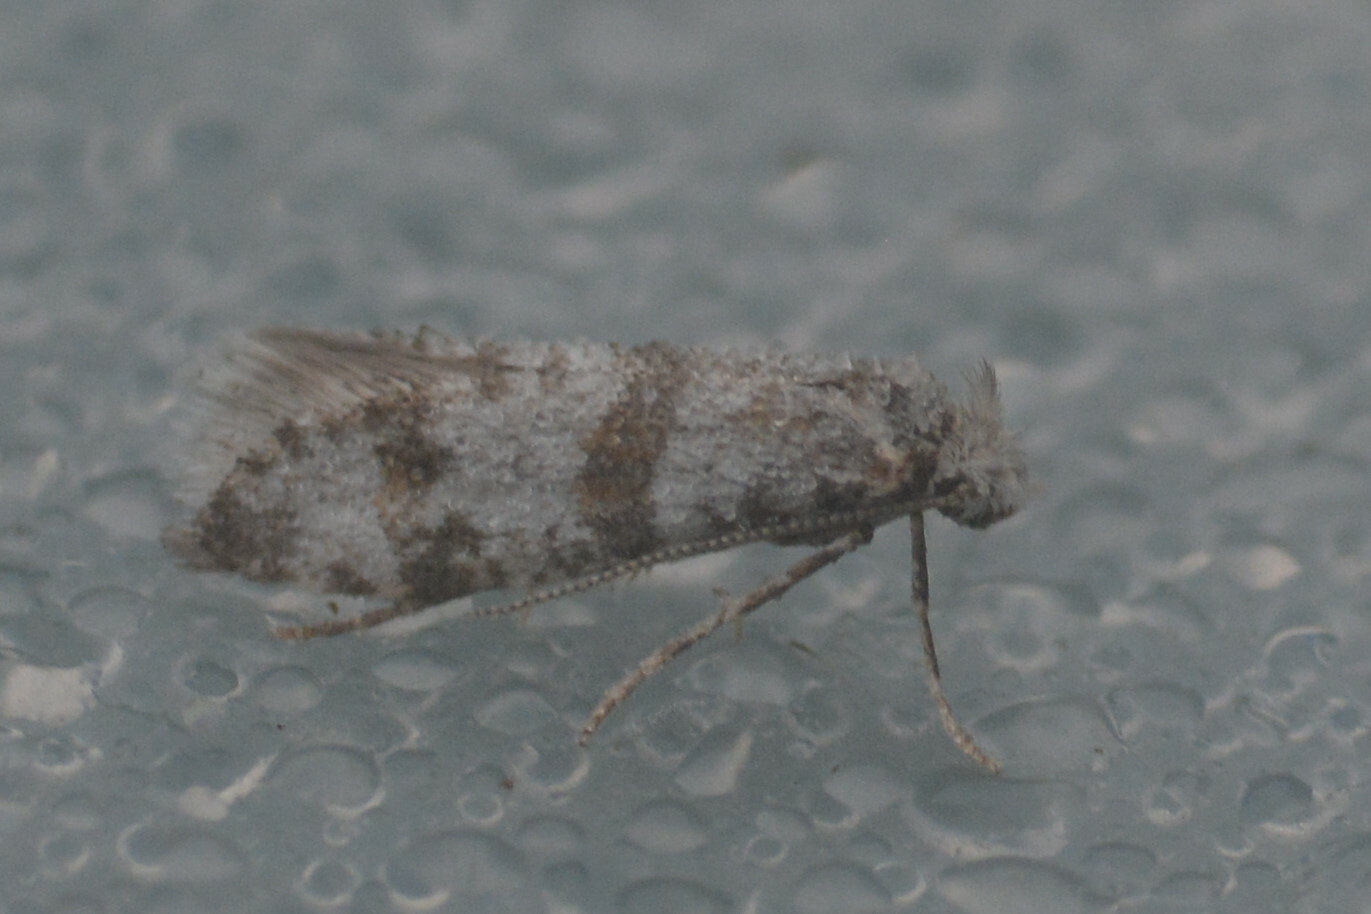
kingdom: Animalia
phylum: Arthropoda
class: Insecta
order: Lepidoptera
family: Yponomeutidae
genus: Scythropia
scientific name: Scythropia crataegella
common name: Hawthorn moth
